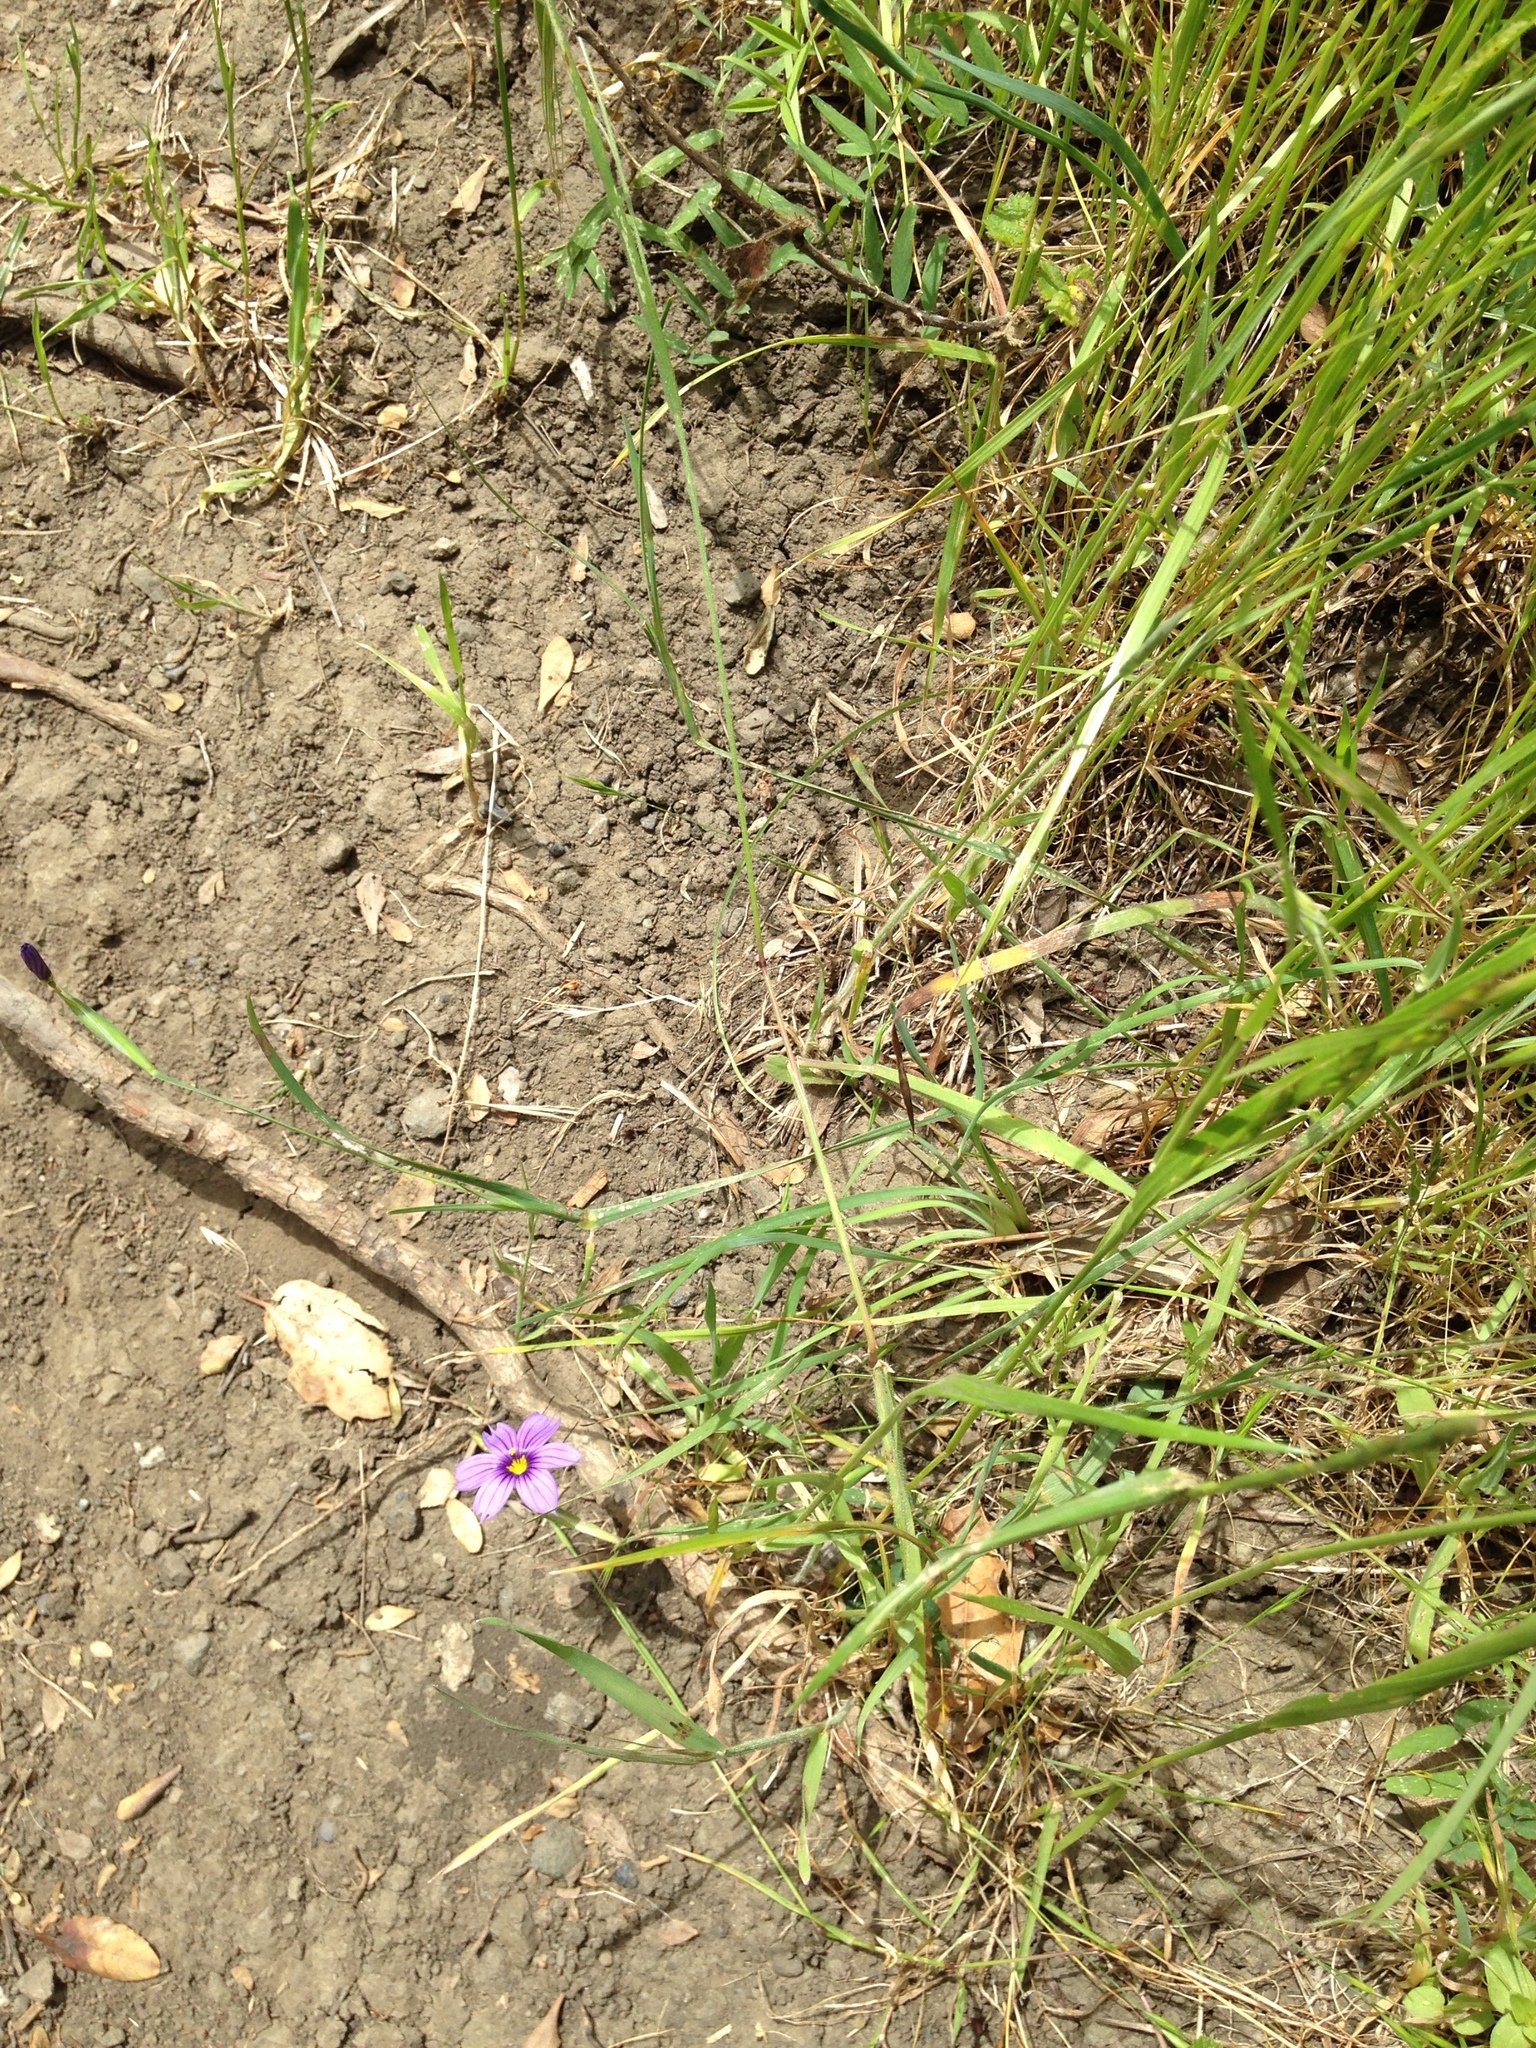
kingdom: Plantae
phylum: Tracheophyta
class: Liliopsida
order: Asparagales
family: Iridaceae
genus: Sisyrinchium
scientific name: Sisyrinchium bellum
